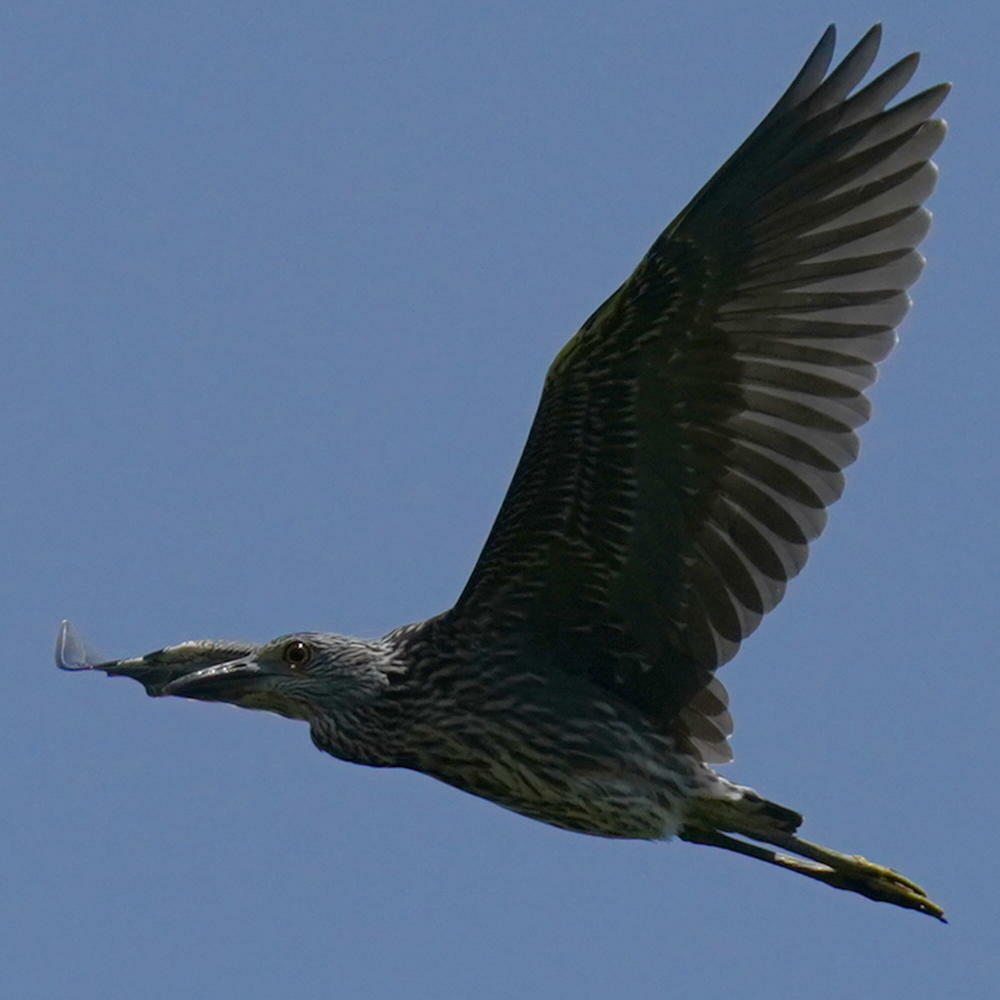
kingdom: Animalia
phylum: Chordata
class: Aves
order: Pelecaniformes
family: Ardeidae
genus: Nyctanassa
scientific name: Nyctanassa violacea
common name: Yellow-crowned night heron
